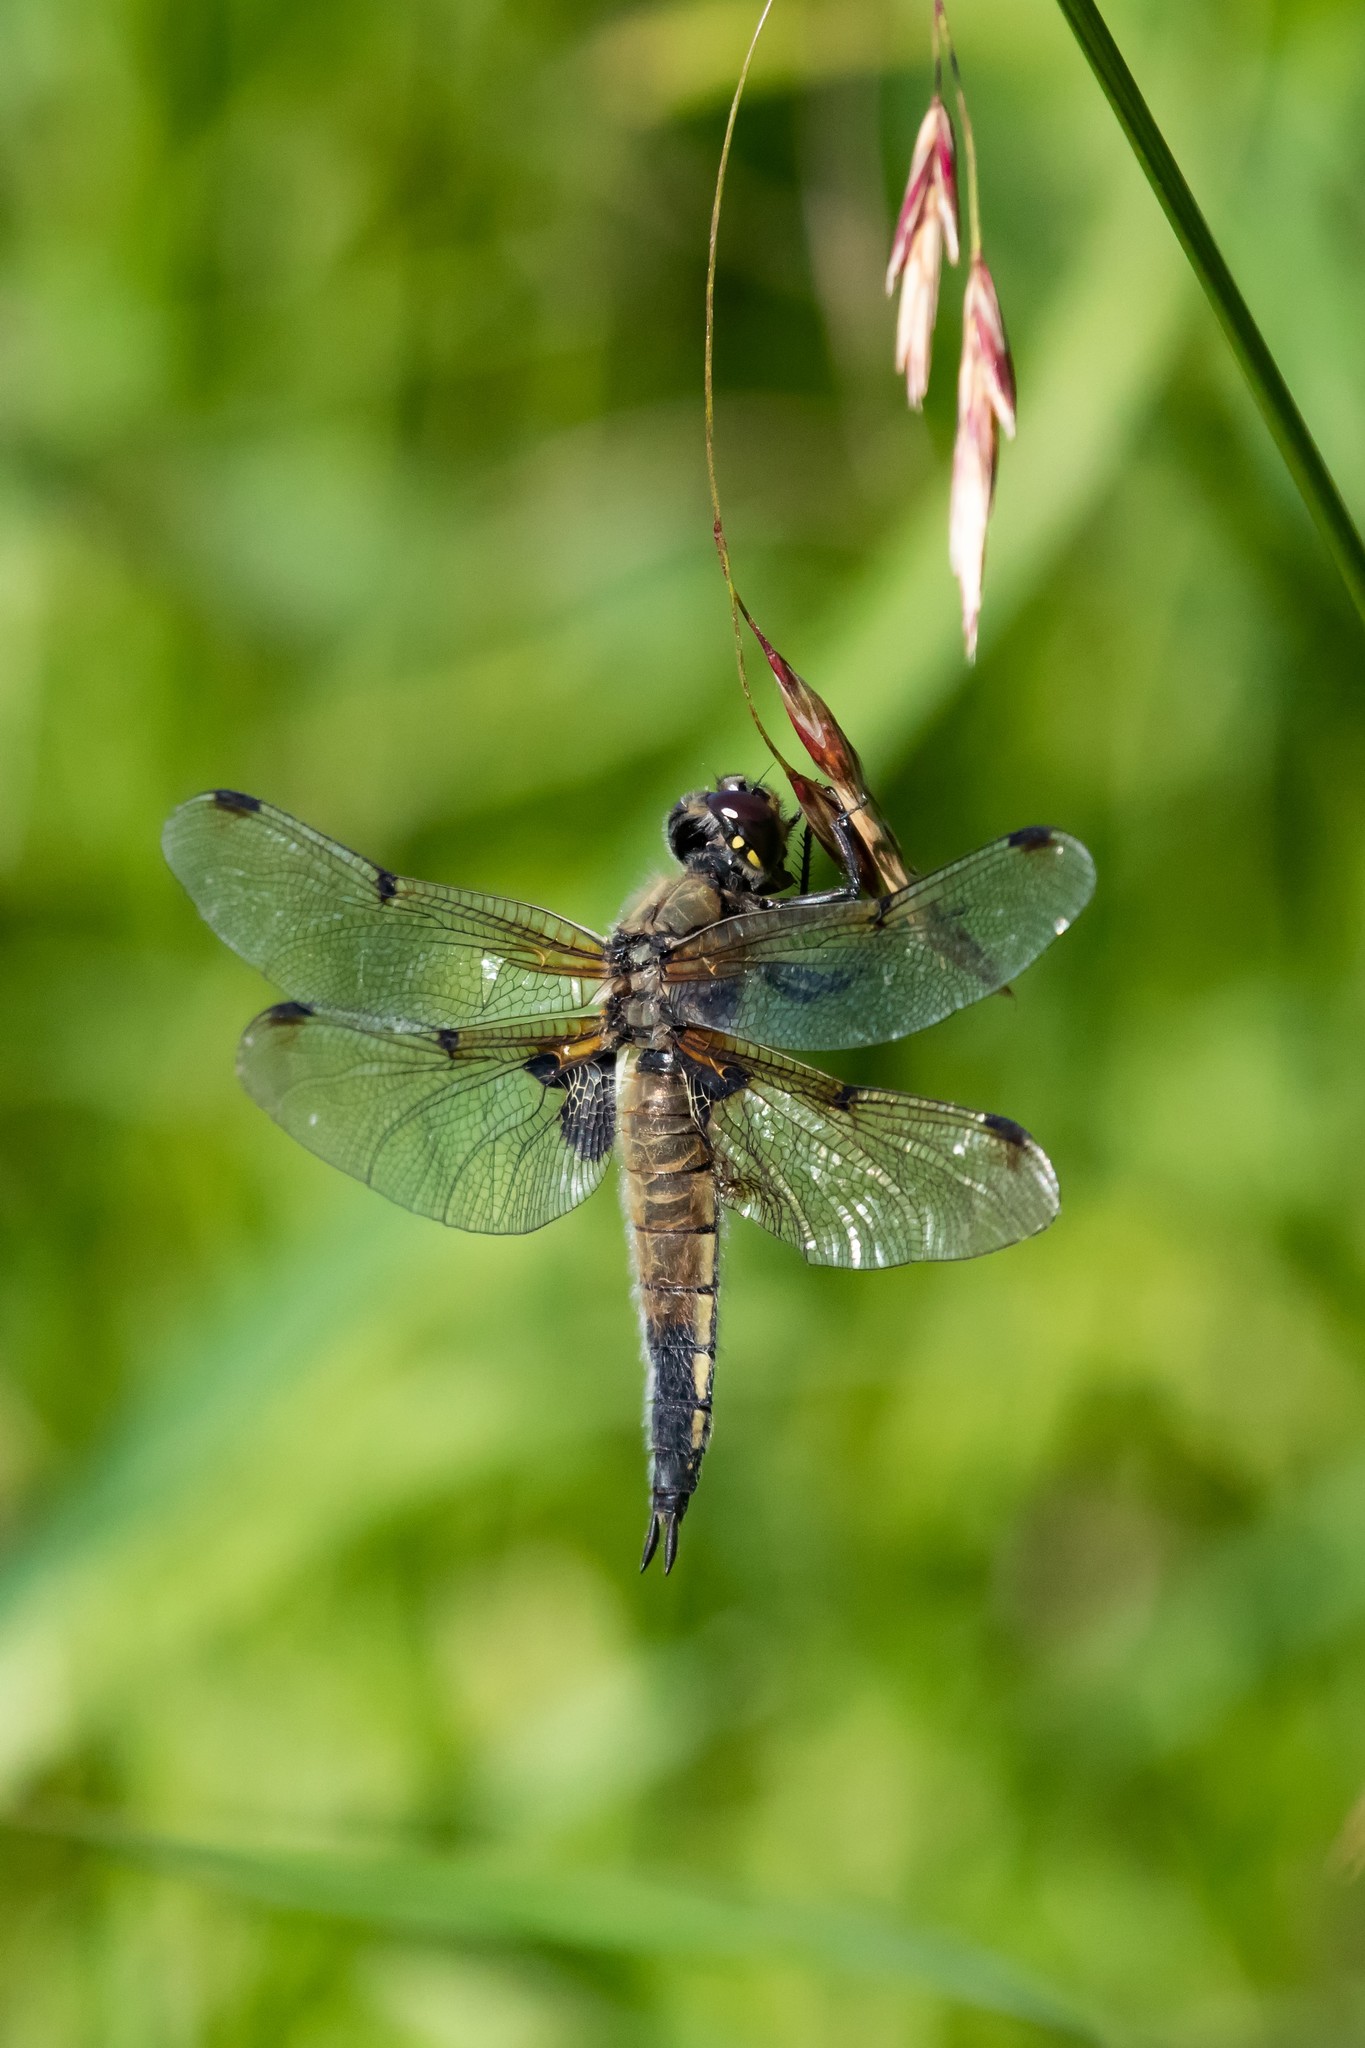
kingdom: Animalia
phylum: Arthropoda
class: Insecta
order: Odonata
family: Libellulidae
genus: Libellula
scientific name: Libellula quadrimaculata
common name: Four-spotted chaser
